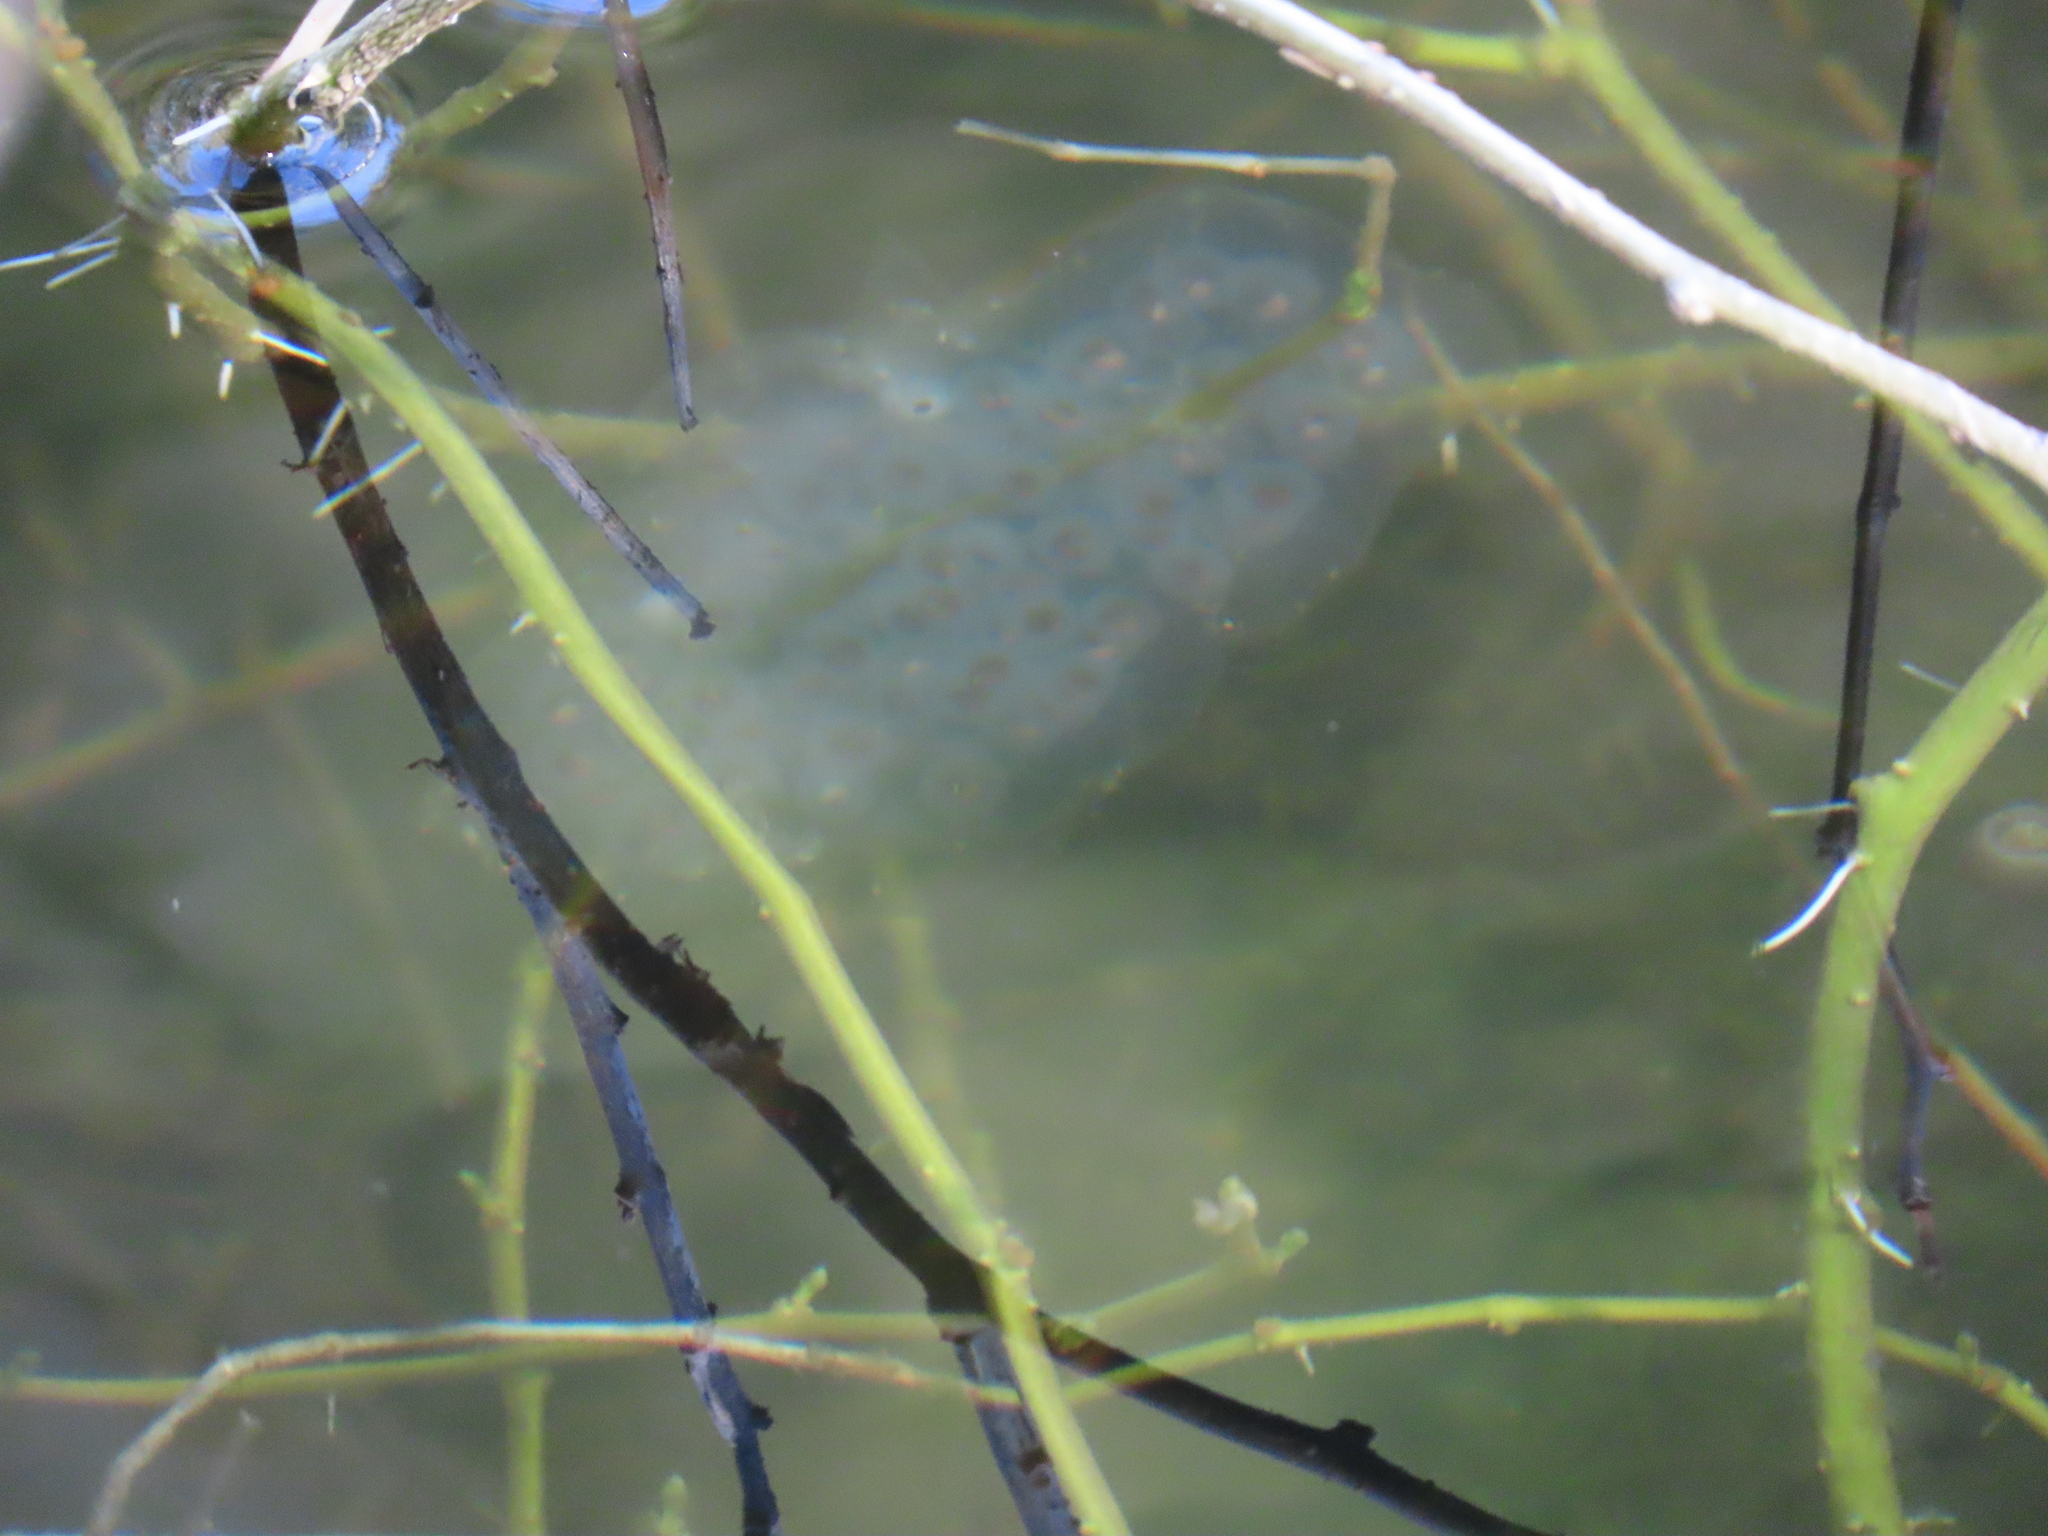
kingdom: Animalia
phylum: Chordata
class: Amphibia
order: Caudata
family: Ambystomatidae
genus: Ambystoma
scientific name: Ambystoma maculatum
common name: Spotted salamander
